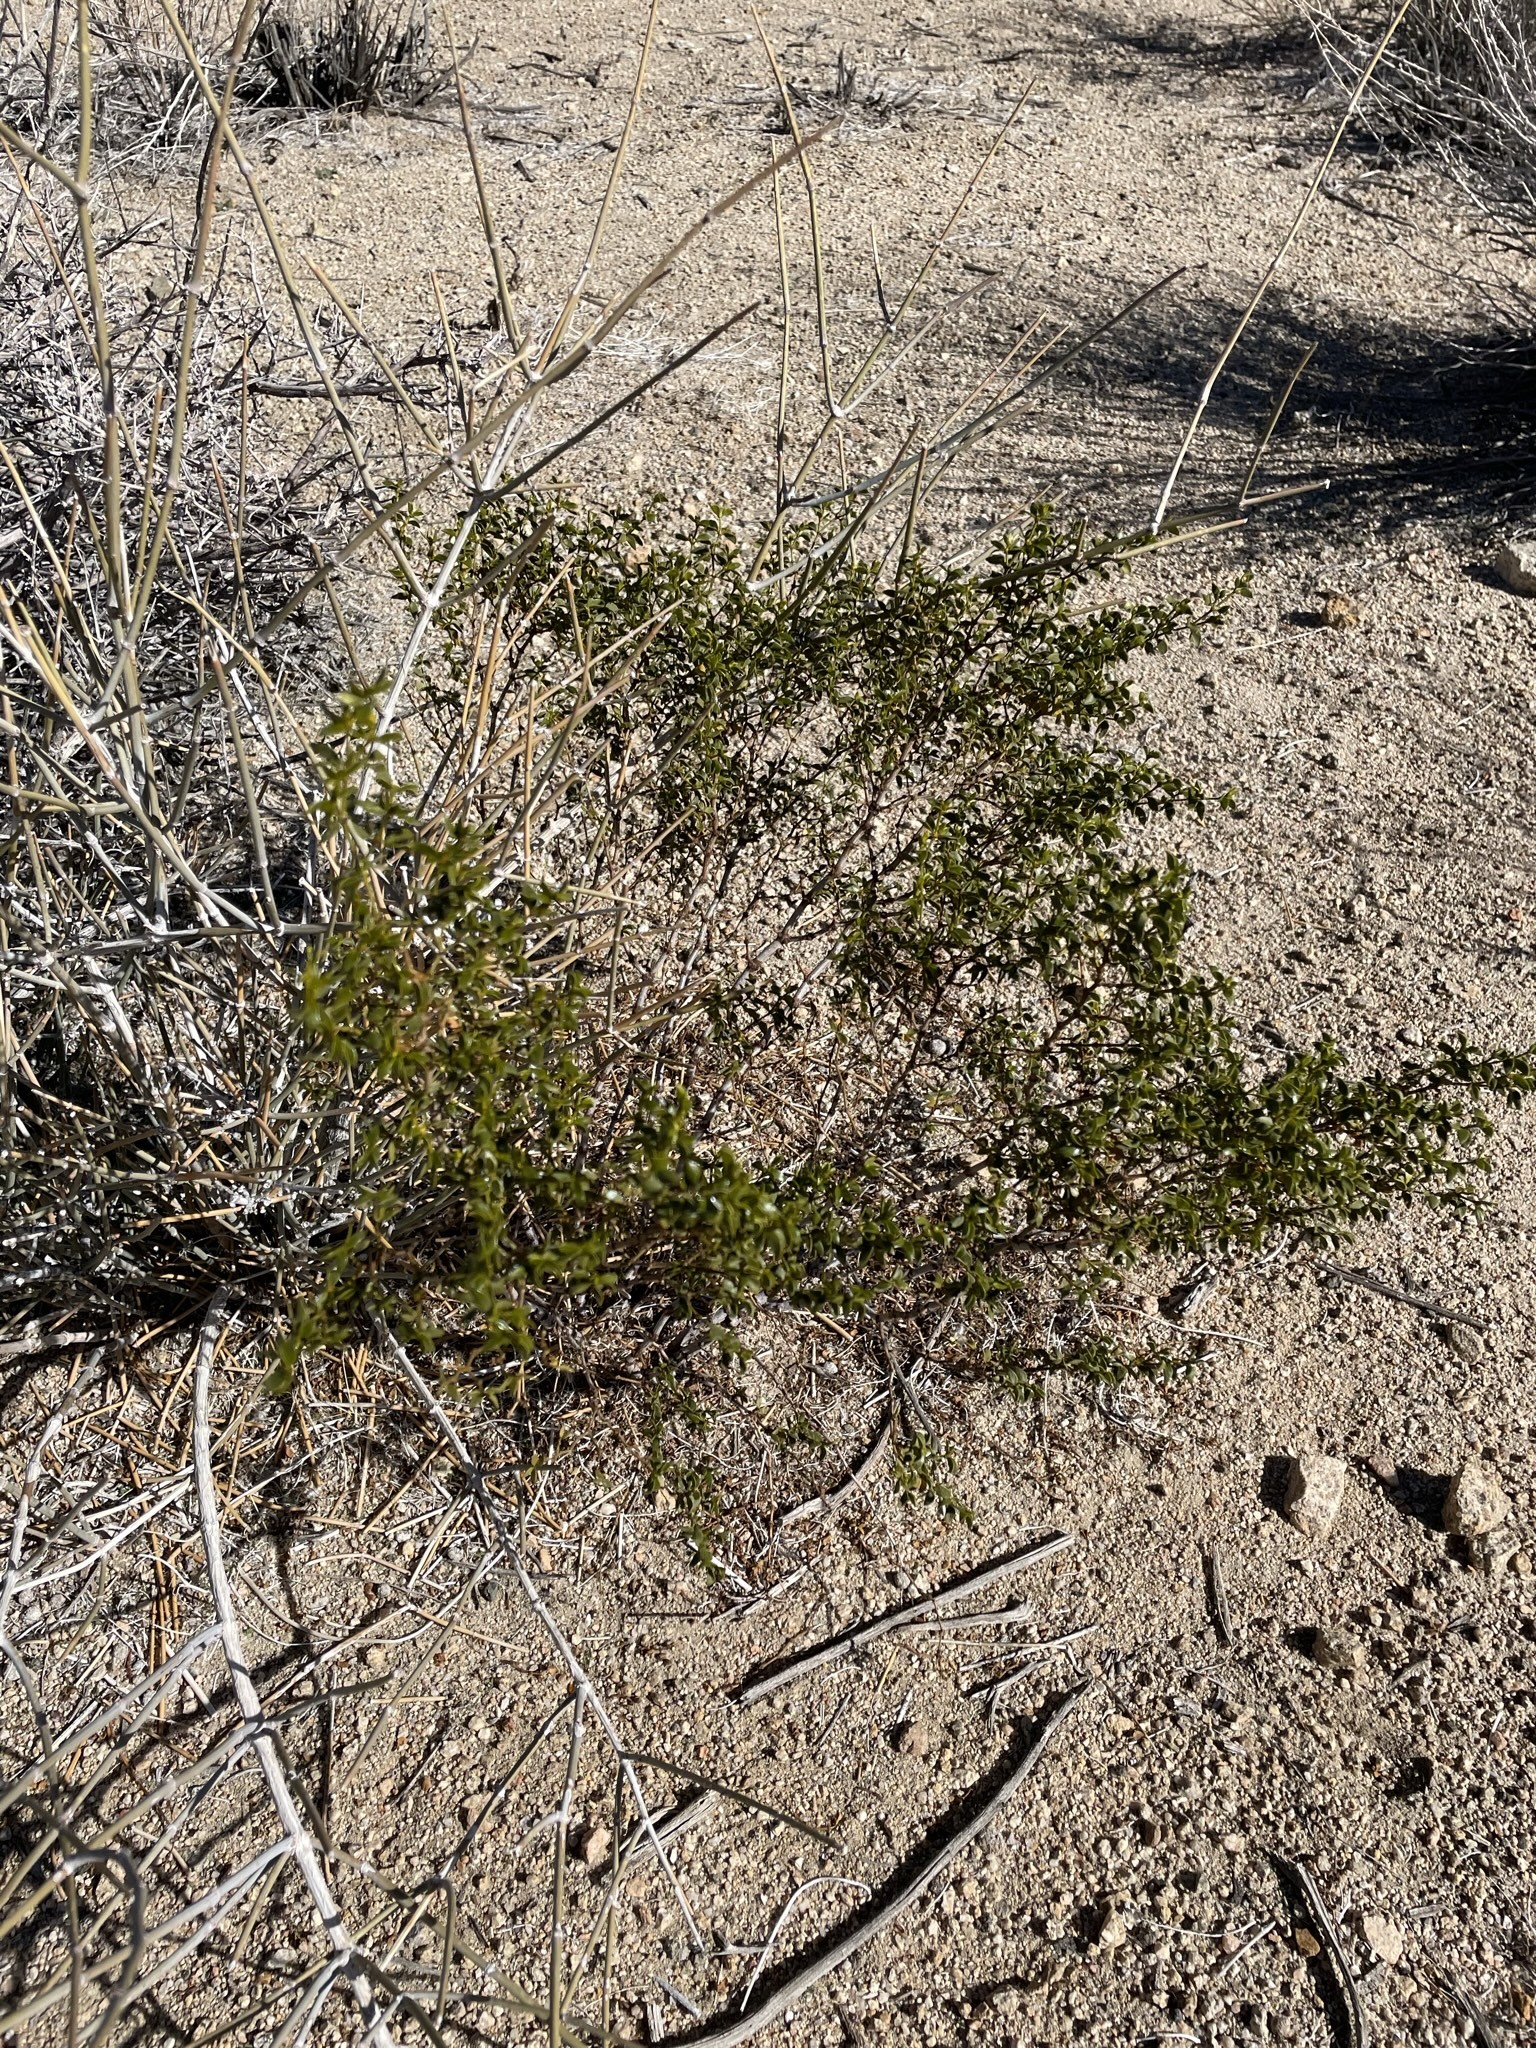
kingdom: Plantae
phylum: Tracheophyta
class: Magnoliopsida
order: Zygophyllales
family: Zygophyllaceae
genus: Larrea
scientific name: Larrea tridentata
